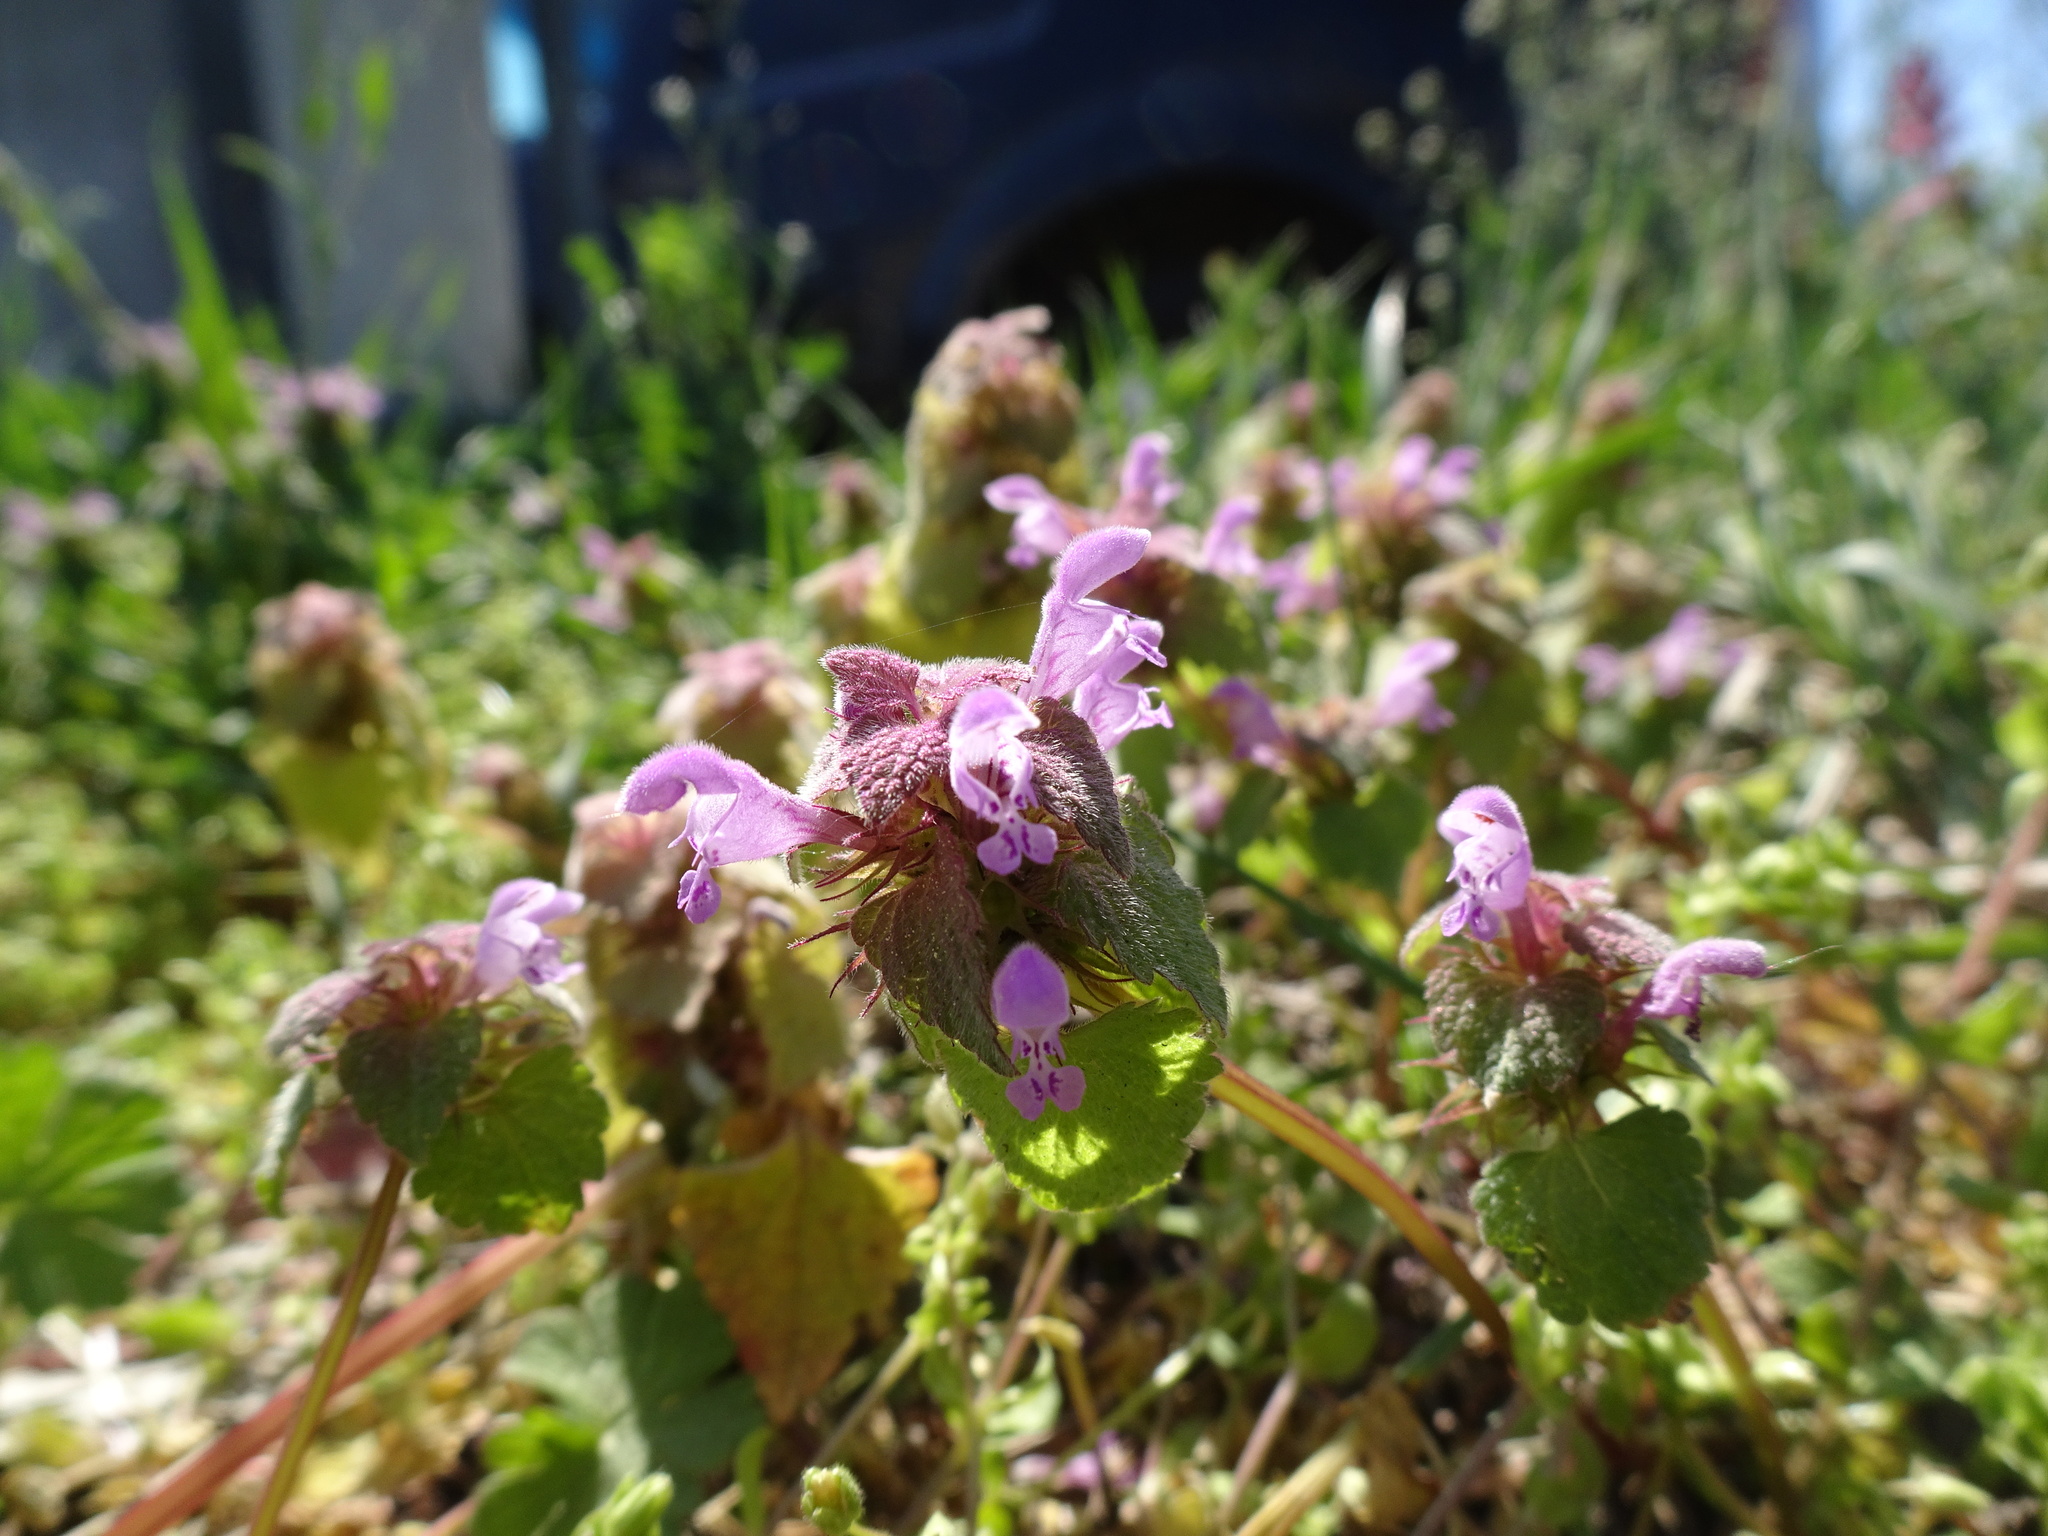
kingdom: Plantae
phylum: Tracheophyta
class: Magnoliopsida
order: Lamiales
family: Lamiaceae
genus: Lamium
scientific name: Lamium purpureum
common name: Red dead-nettle
